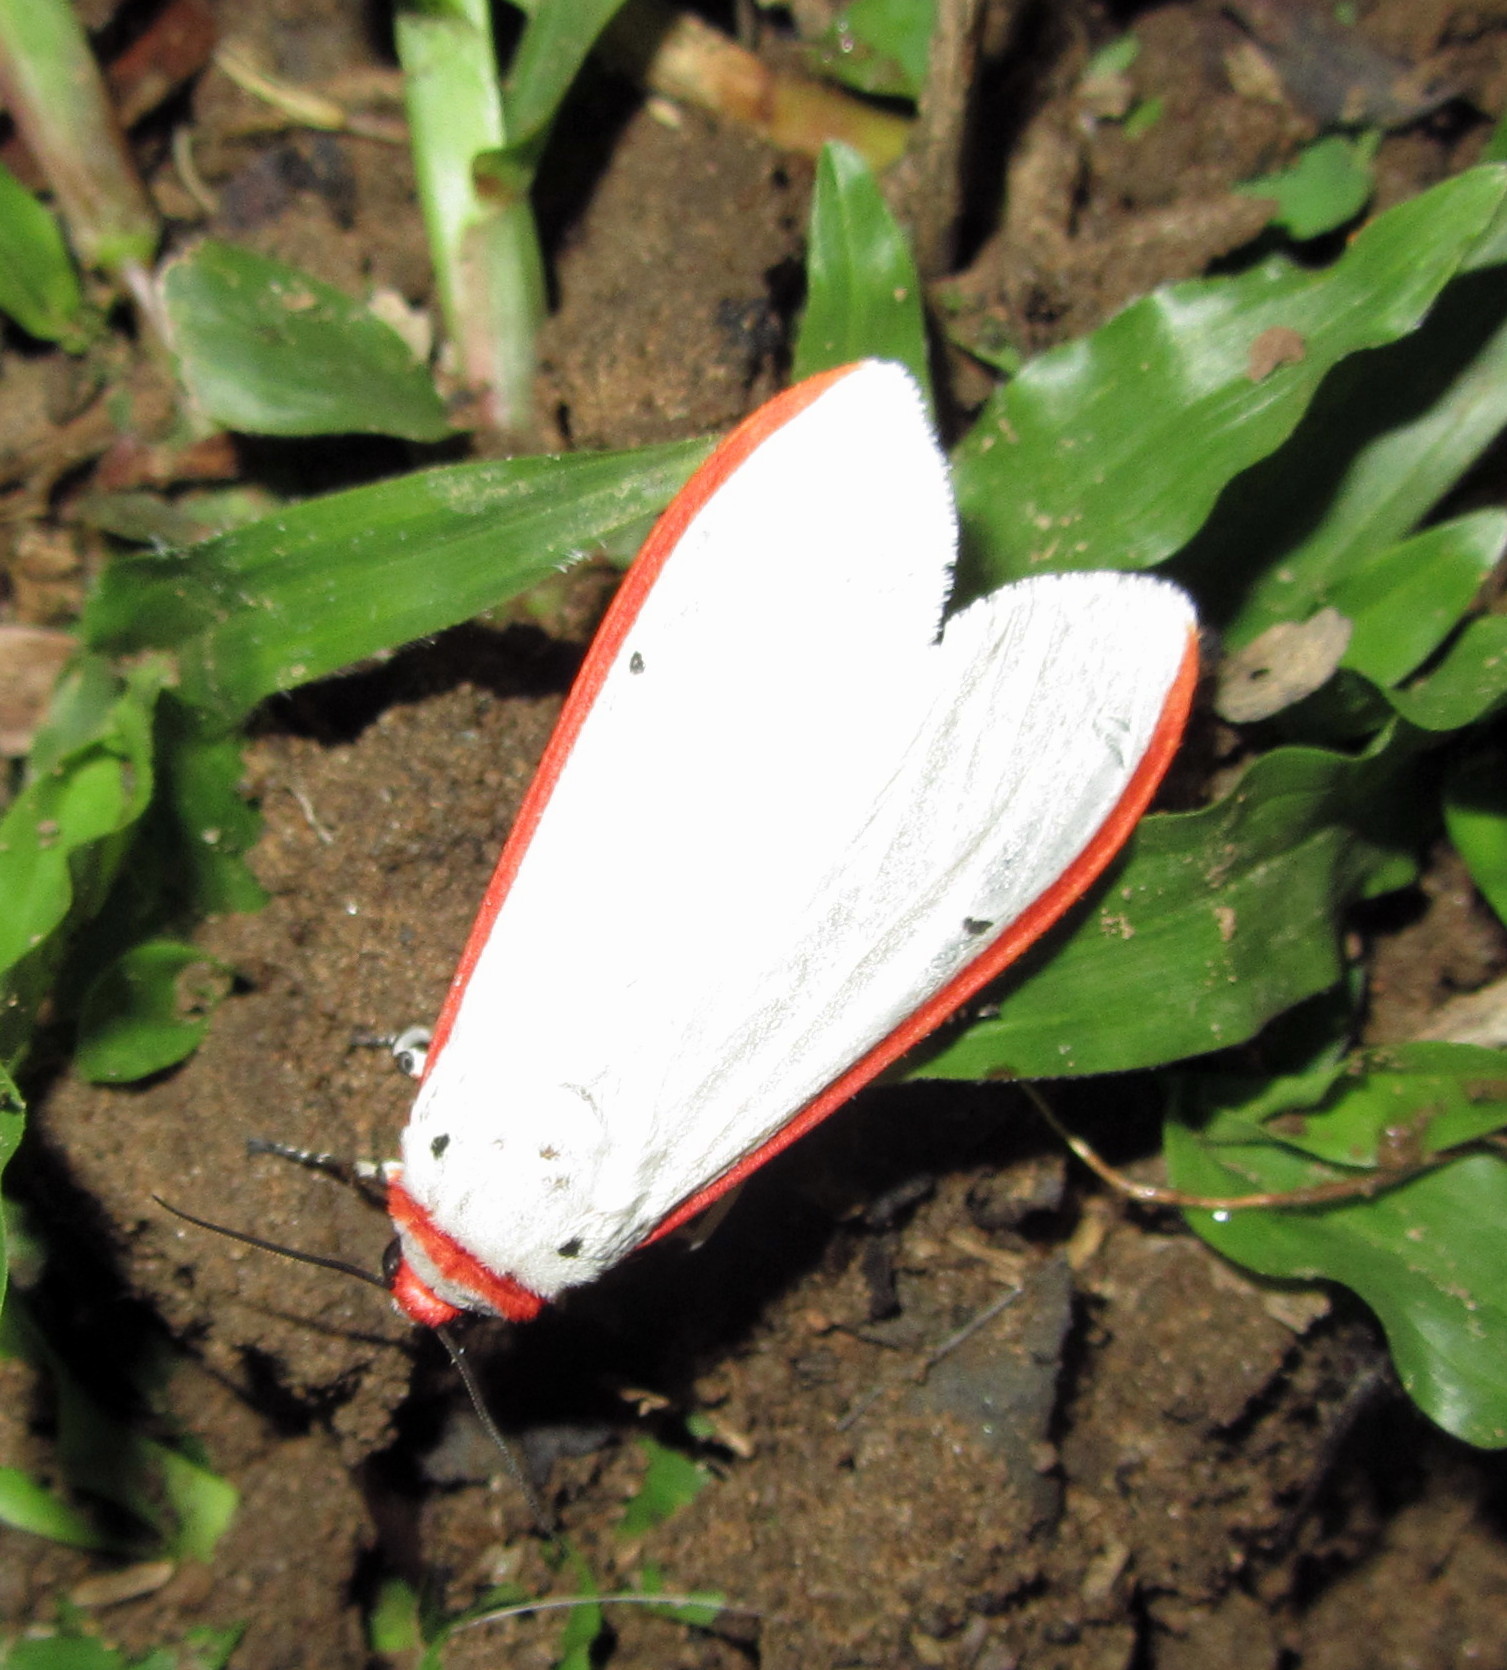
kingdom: Animalia
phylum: Arthropoda
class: Insecta
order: Lepidoptera
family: Erebidae
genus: Aloa
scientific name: Aloa lactinea
